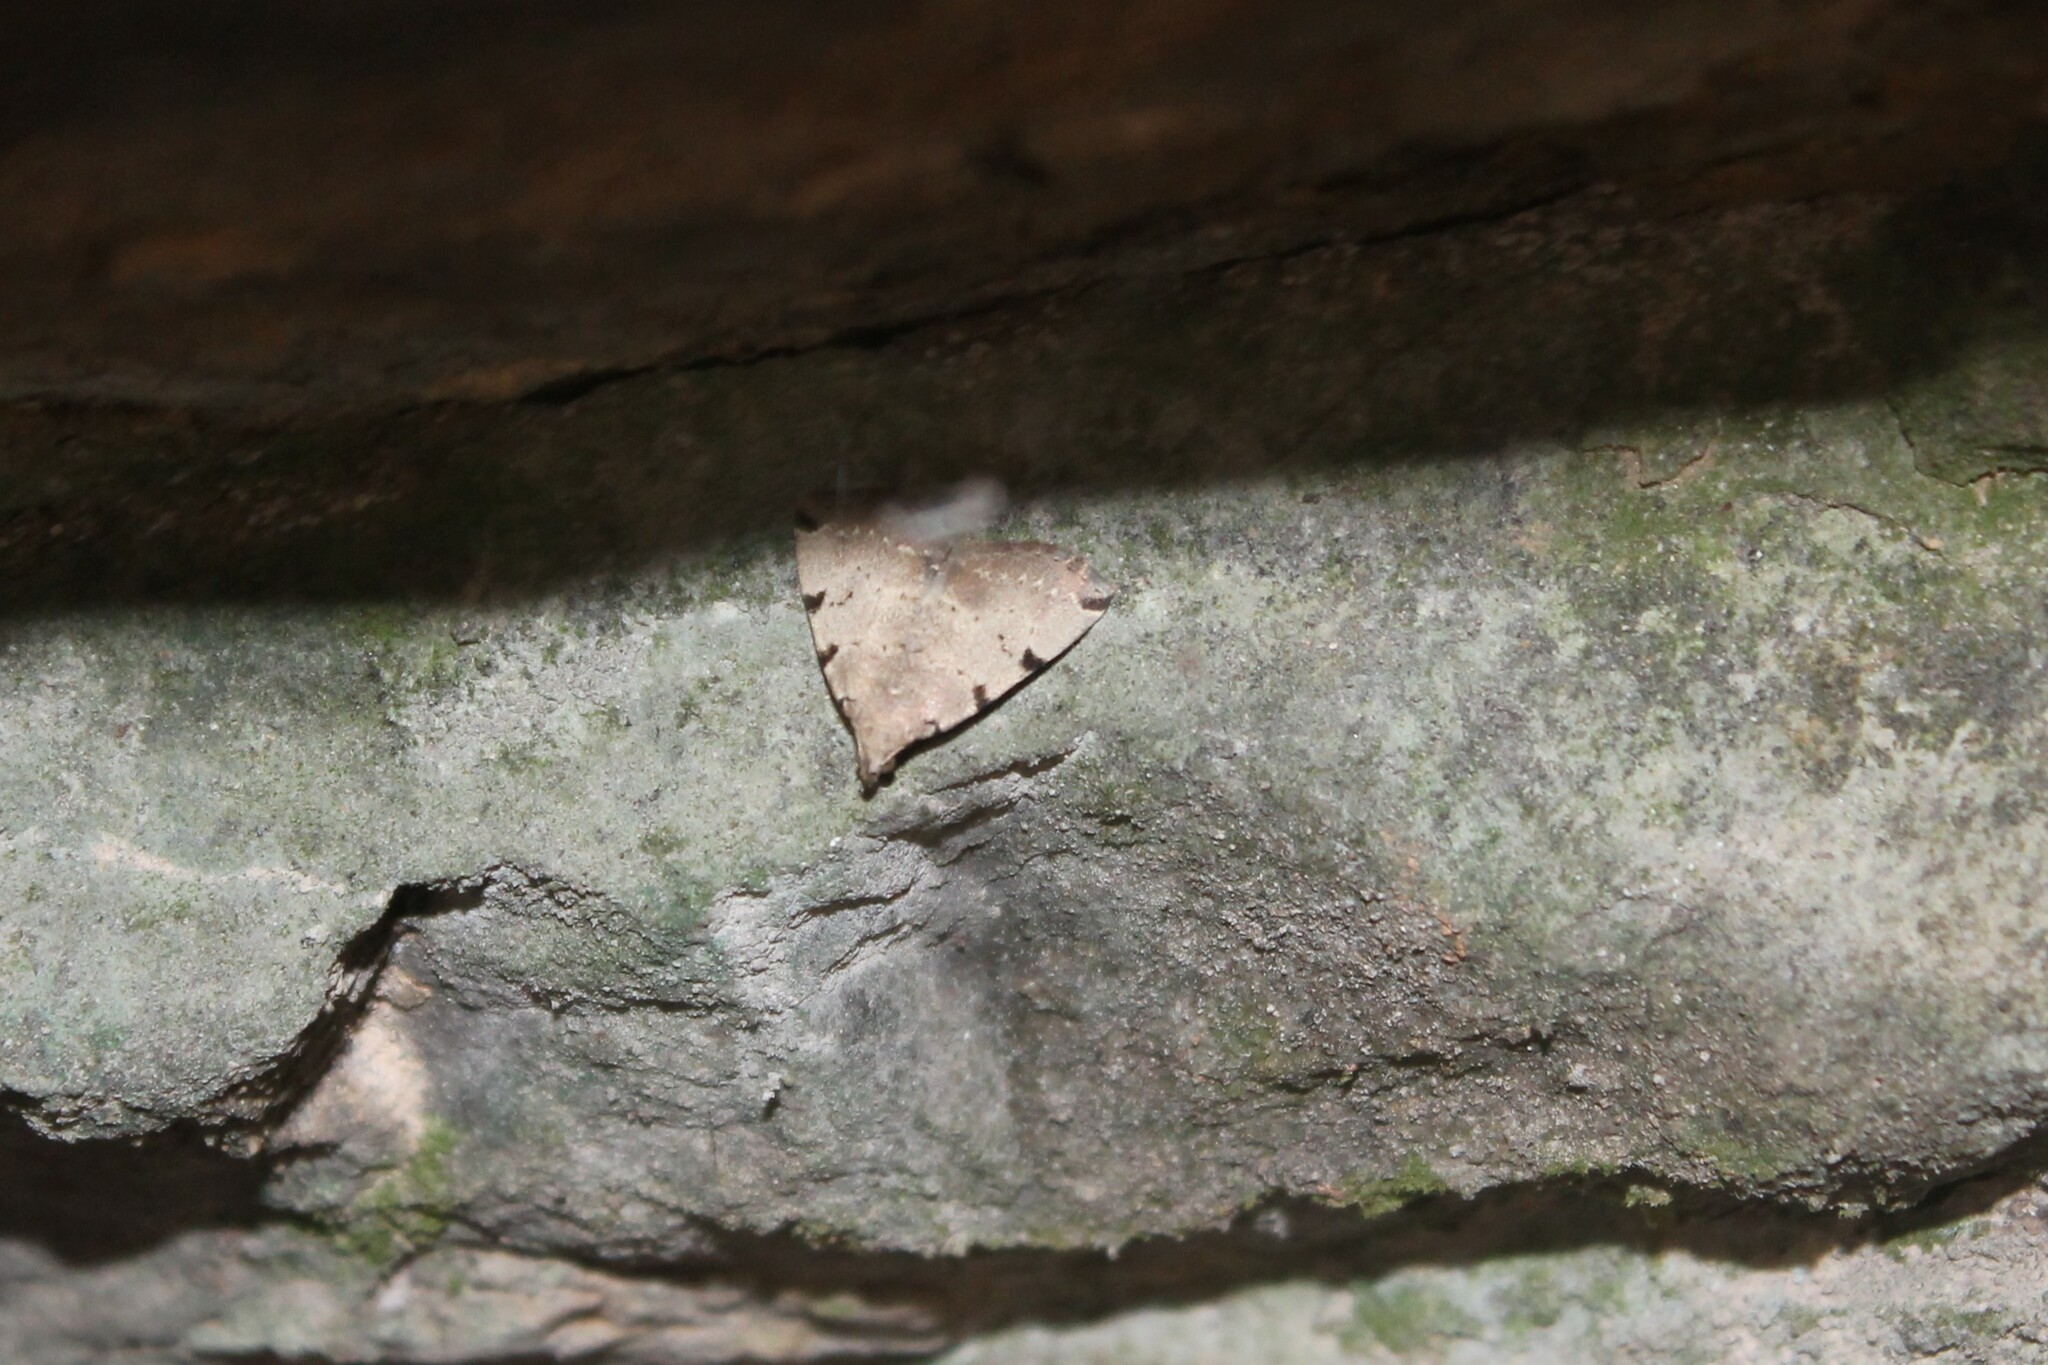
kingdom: Animalia
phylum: Arthropoda
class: Insecta
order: Lepidoptera
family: Erebidae
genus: Zanclognatha
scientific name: Zanclognatha lituralis
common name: Lettered fan-foot
